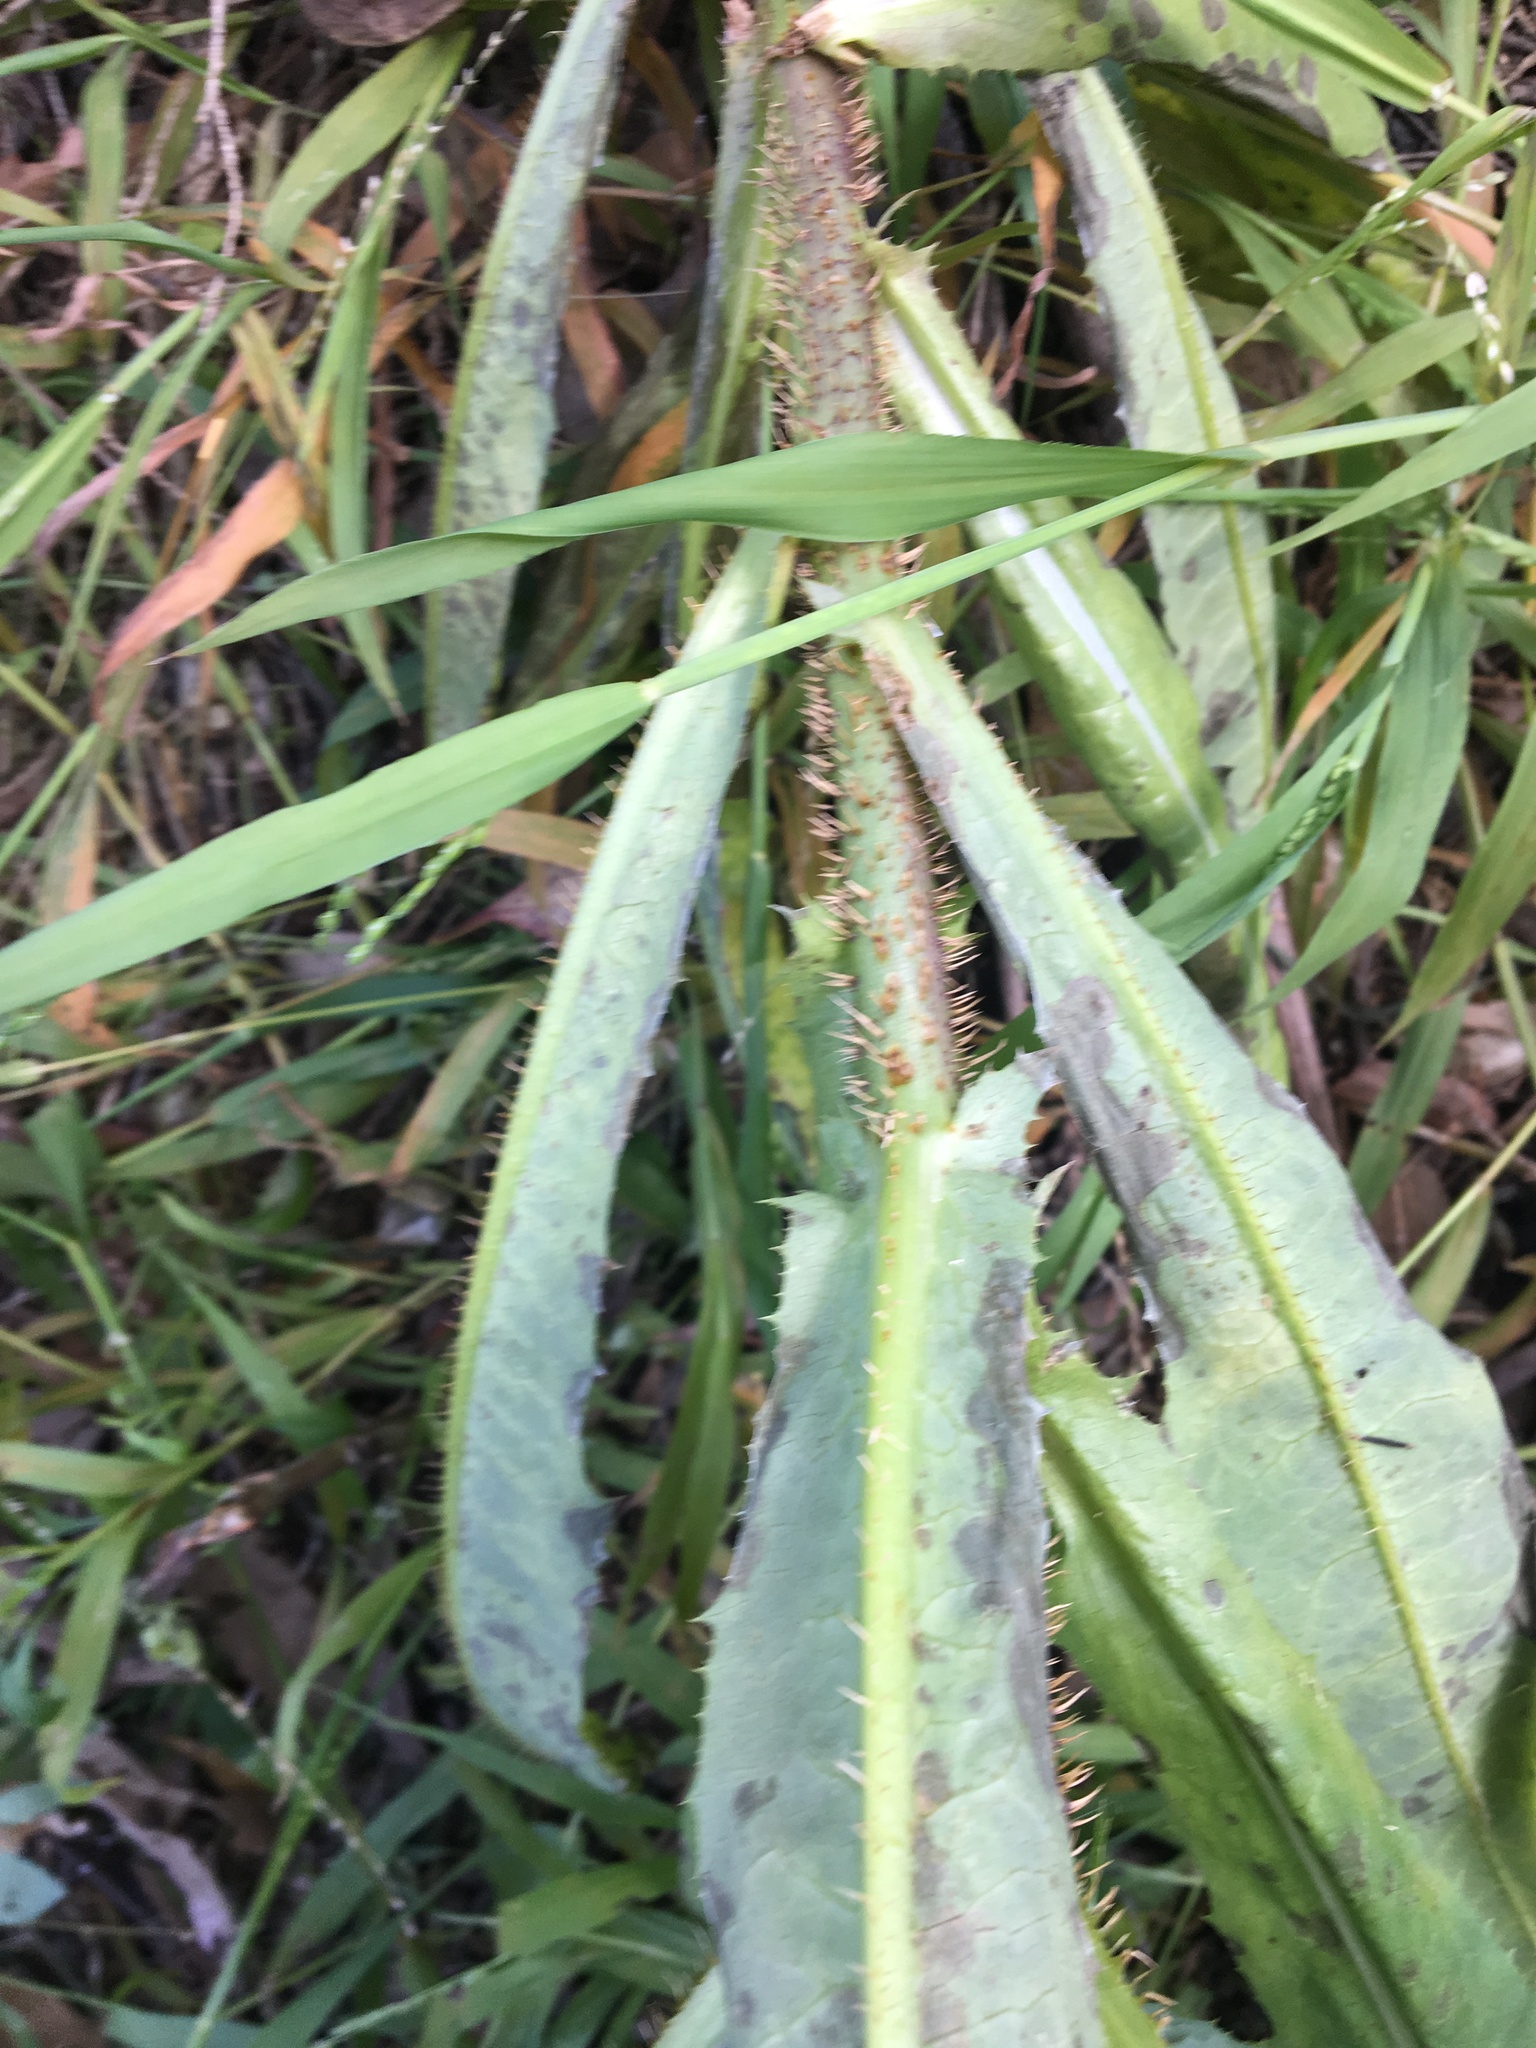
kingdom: Plantae
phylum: Tracheophyta
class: Magnoliopsida
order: Asterales
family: Asteraceae
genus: Lactuca
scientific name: Lactuca serriola
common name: Prickly lettuce
